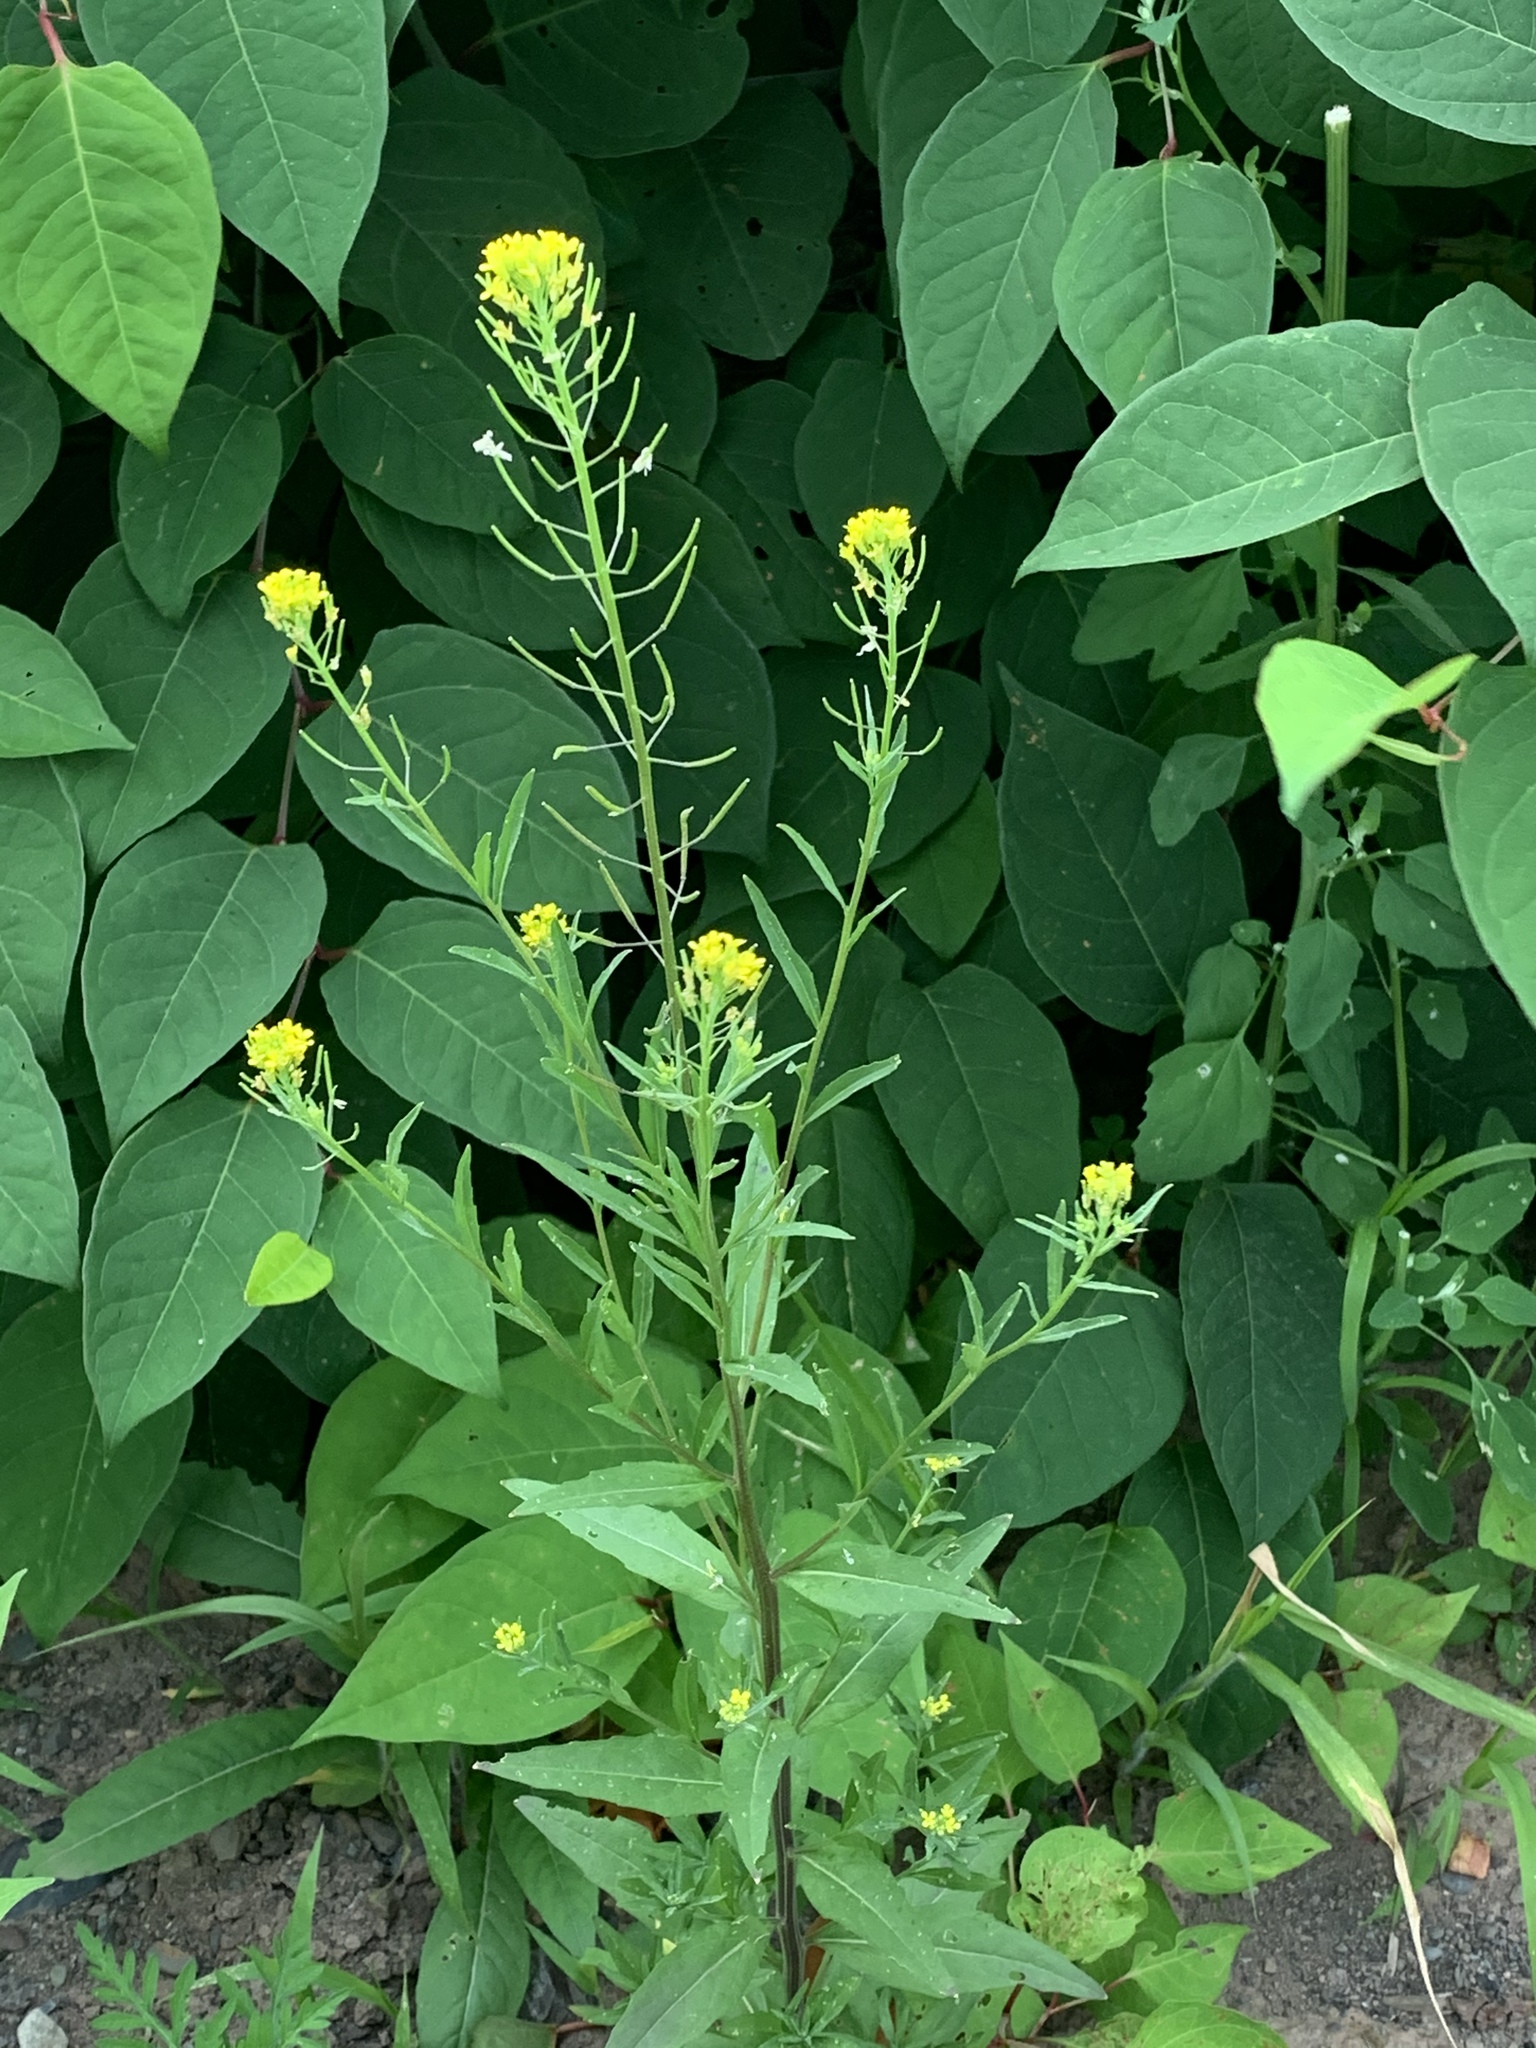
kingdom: Plantae
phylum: Tracheophyta
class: Magnoliopsida
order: Brassicales
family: Brassicaceae
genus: Erysimum
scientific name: Erysimum cheiranthoides
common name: Treacle mustard
